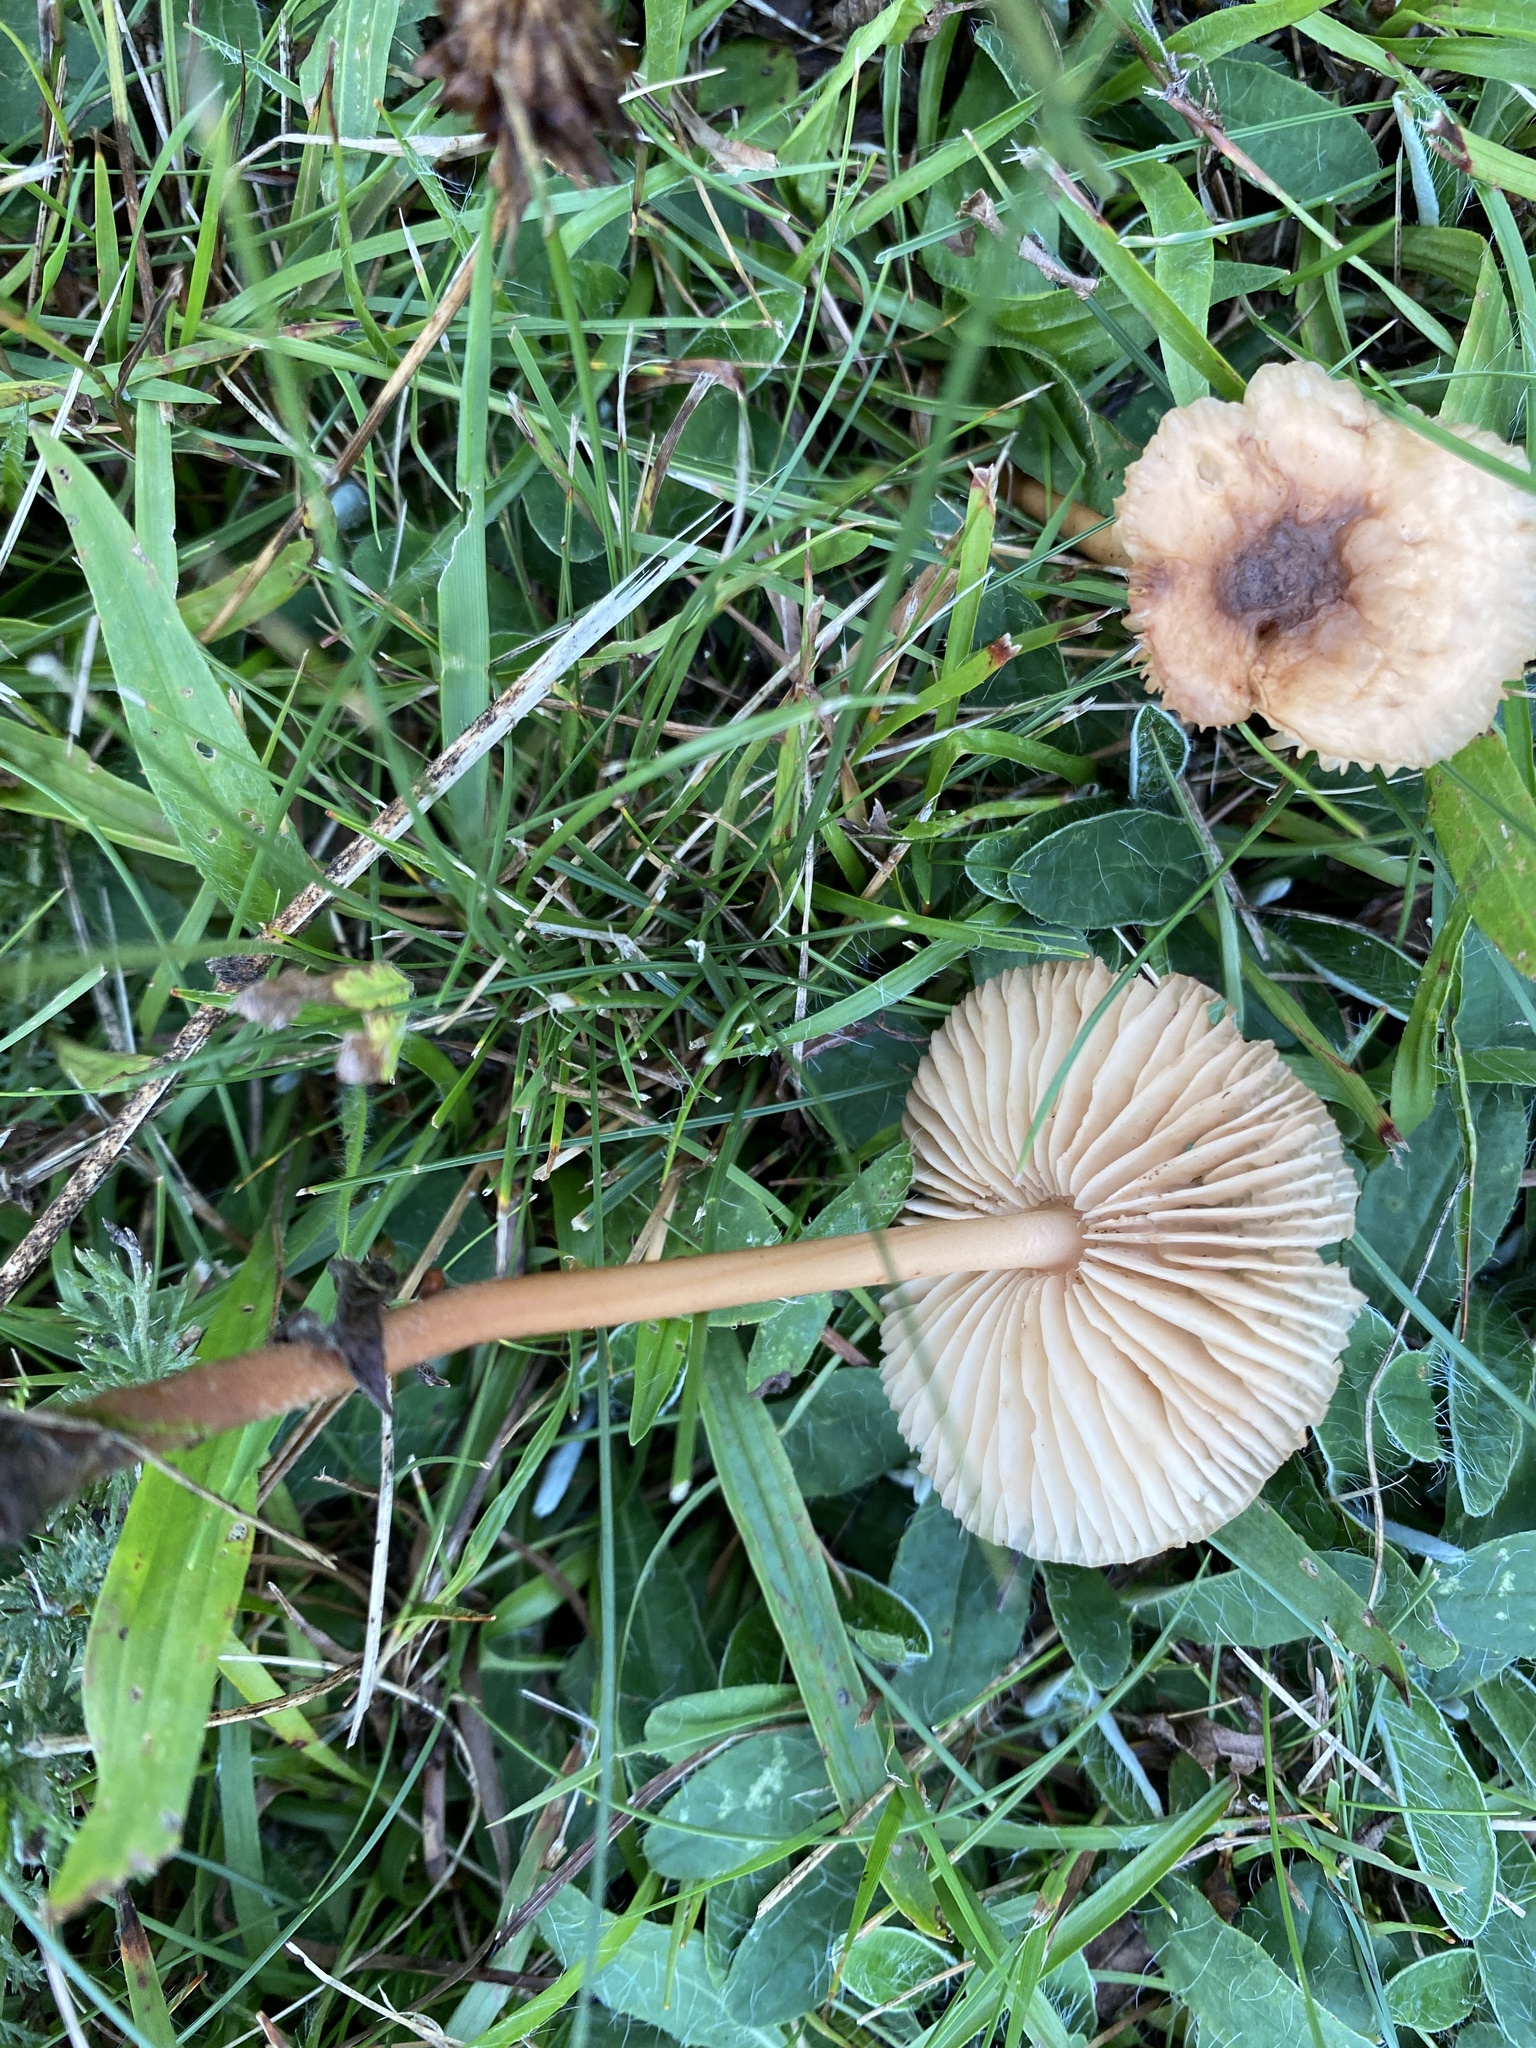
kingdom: Fungi
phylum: Basidiomycota
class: Agaricomycetes
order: Agaricales
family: Marasmiaceae
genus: Marasmius
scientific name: Marasmius oreades
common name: Fairy ring champignon
